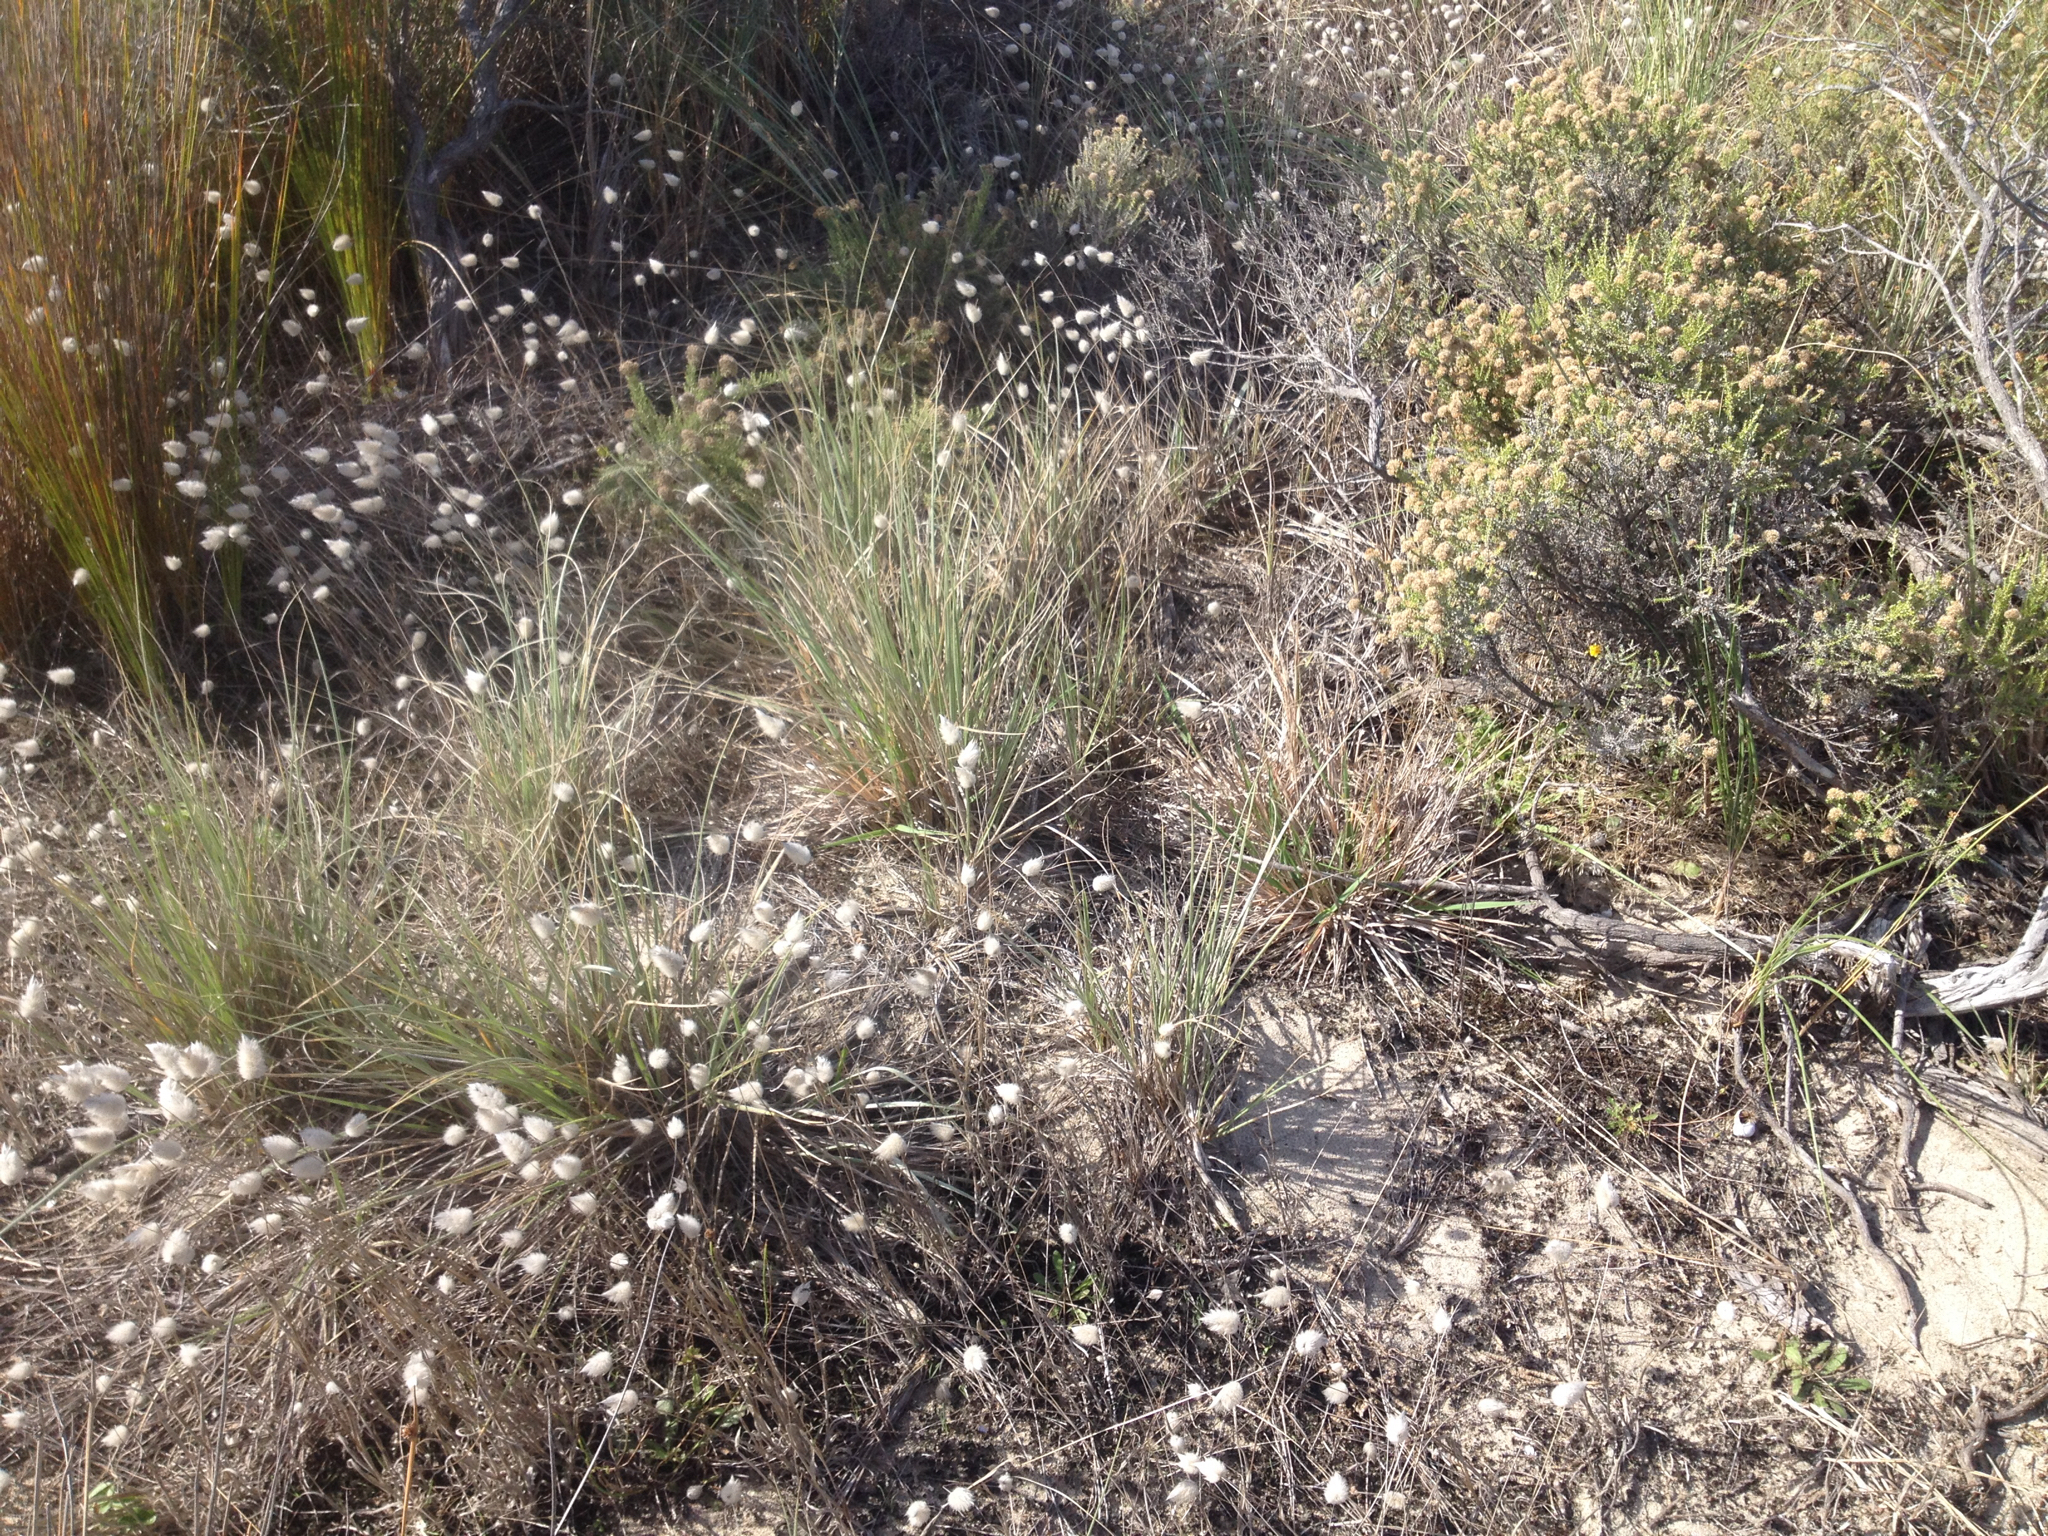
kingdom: Plantae
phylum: Tracheophyta
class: Magnoliopsida
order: Asterales
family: Asteraceae
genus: Ozothamnus
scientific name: Ozothamnus leptophyllus
